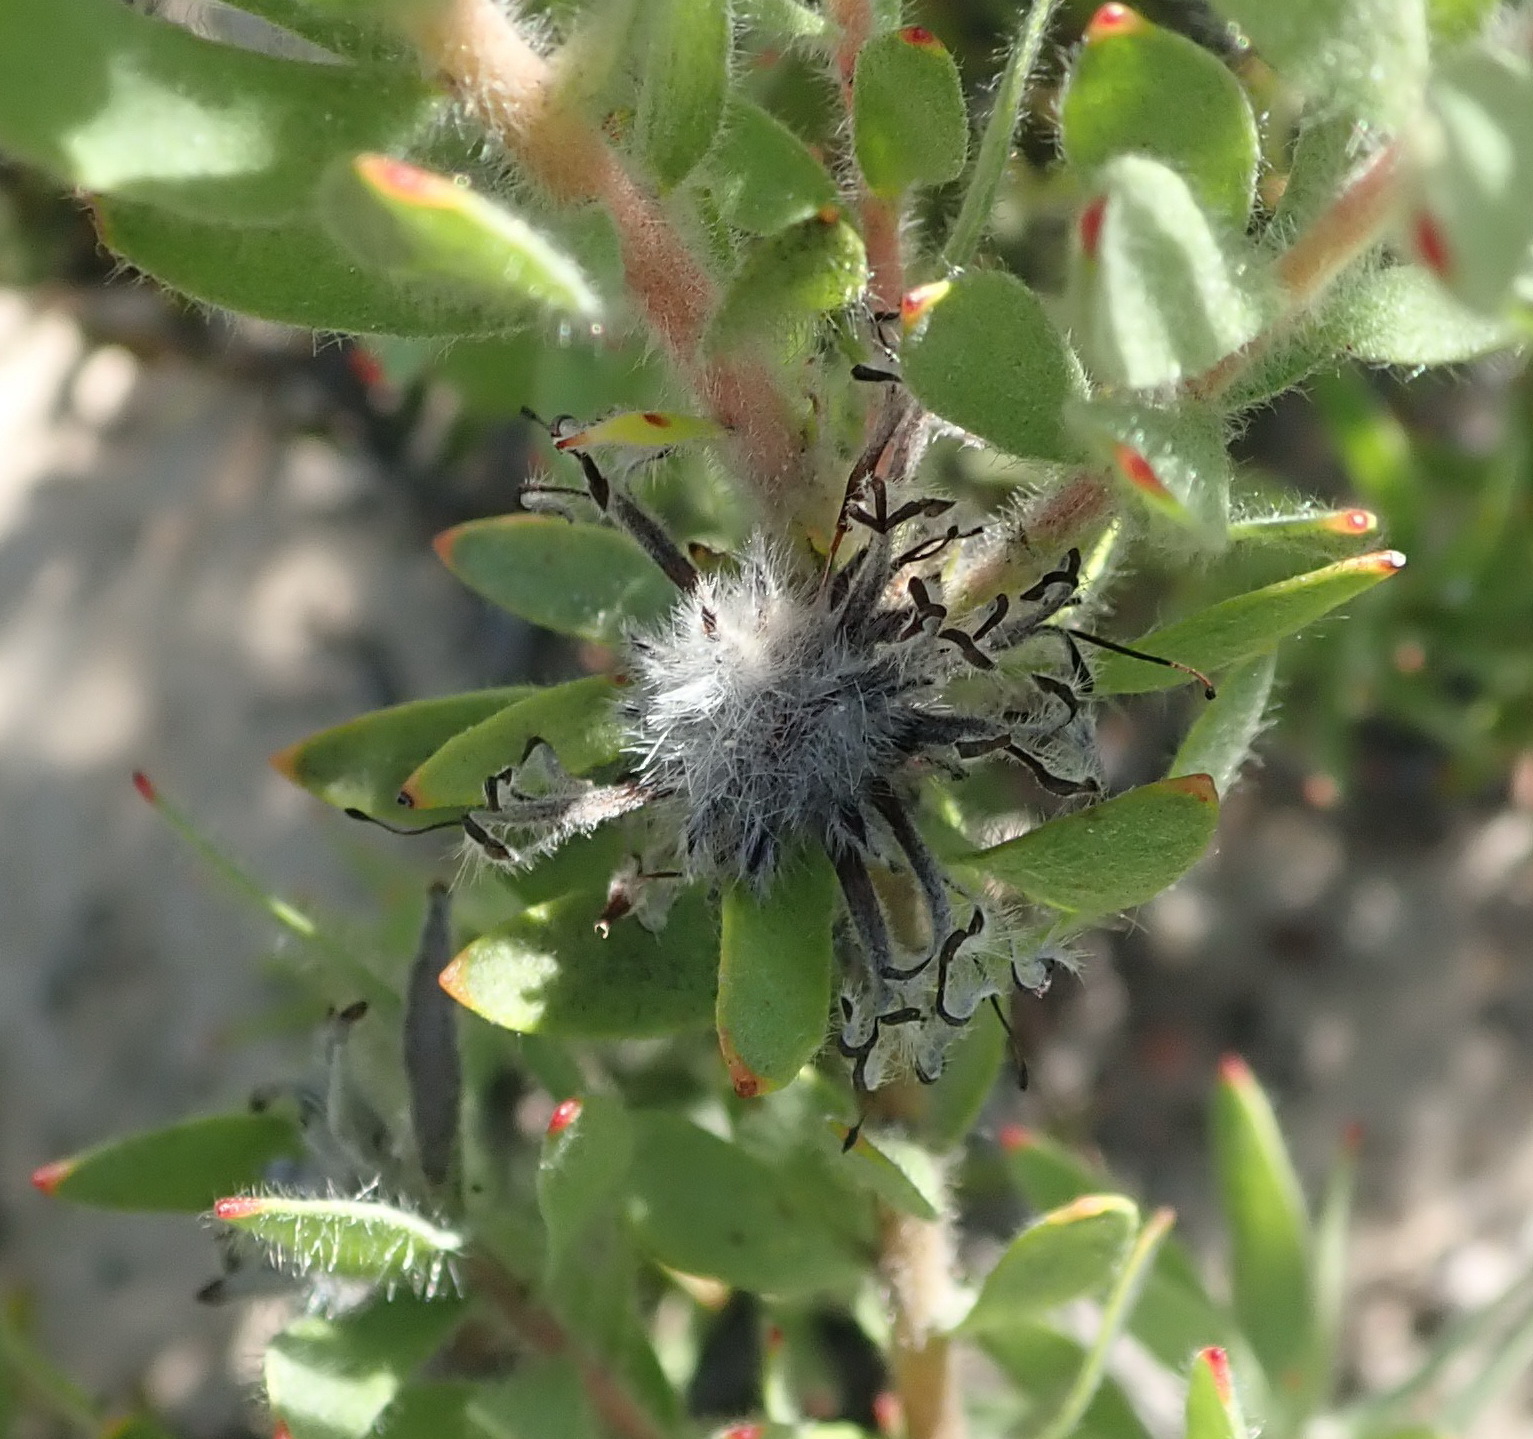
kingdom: Plantae
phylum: Tracheophyta
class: Magnoliopsida
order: Proteales
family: Proteaceae
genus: Leucospermum
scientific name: Leucospermum wittebergense
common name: Swartberg pincushion
